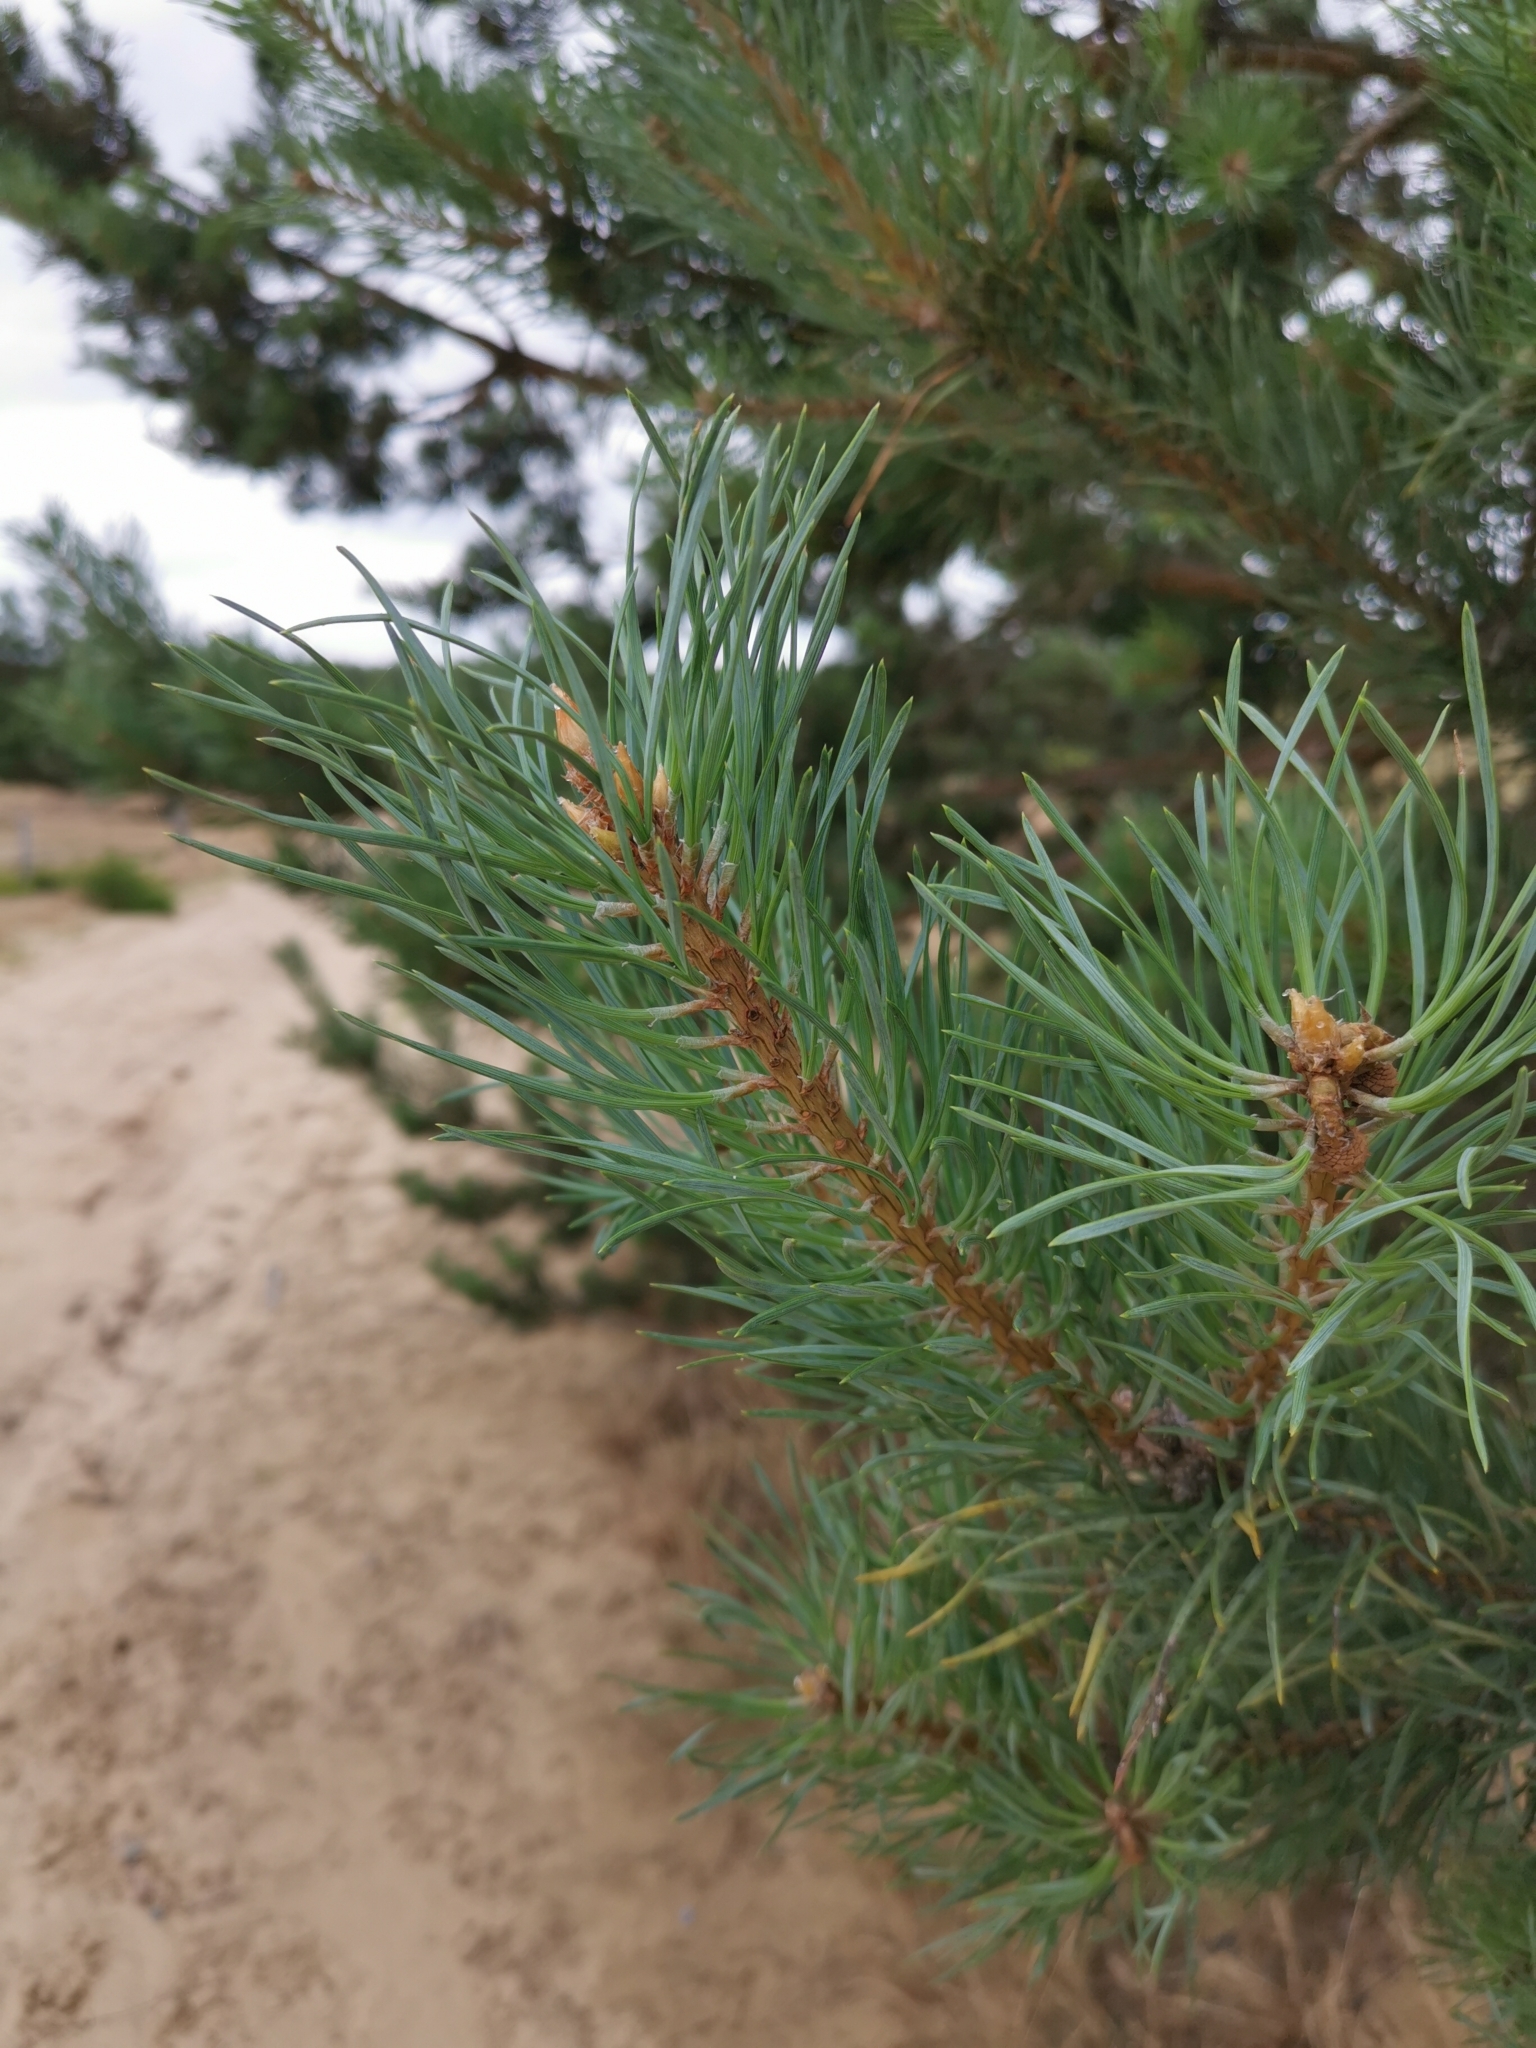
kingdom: Plantae
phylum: Tracheophyta
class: Pinopsida
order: Pinales
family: Pinaceae
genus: Pinus
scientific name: Pinus sylvestris
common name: Scots pine
